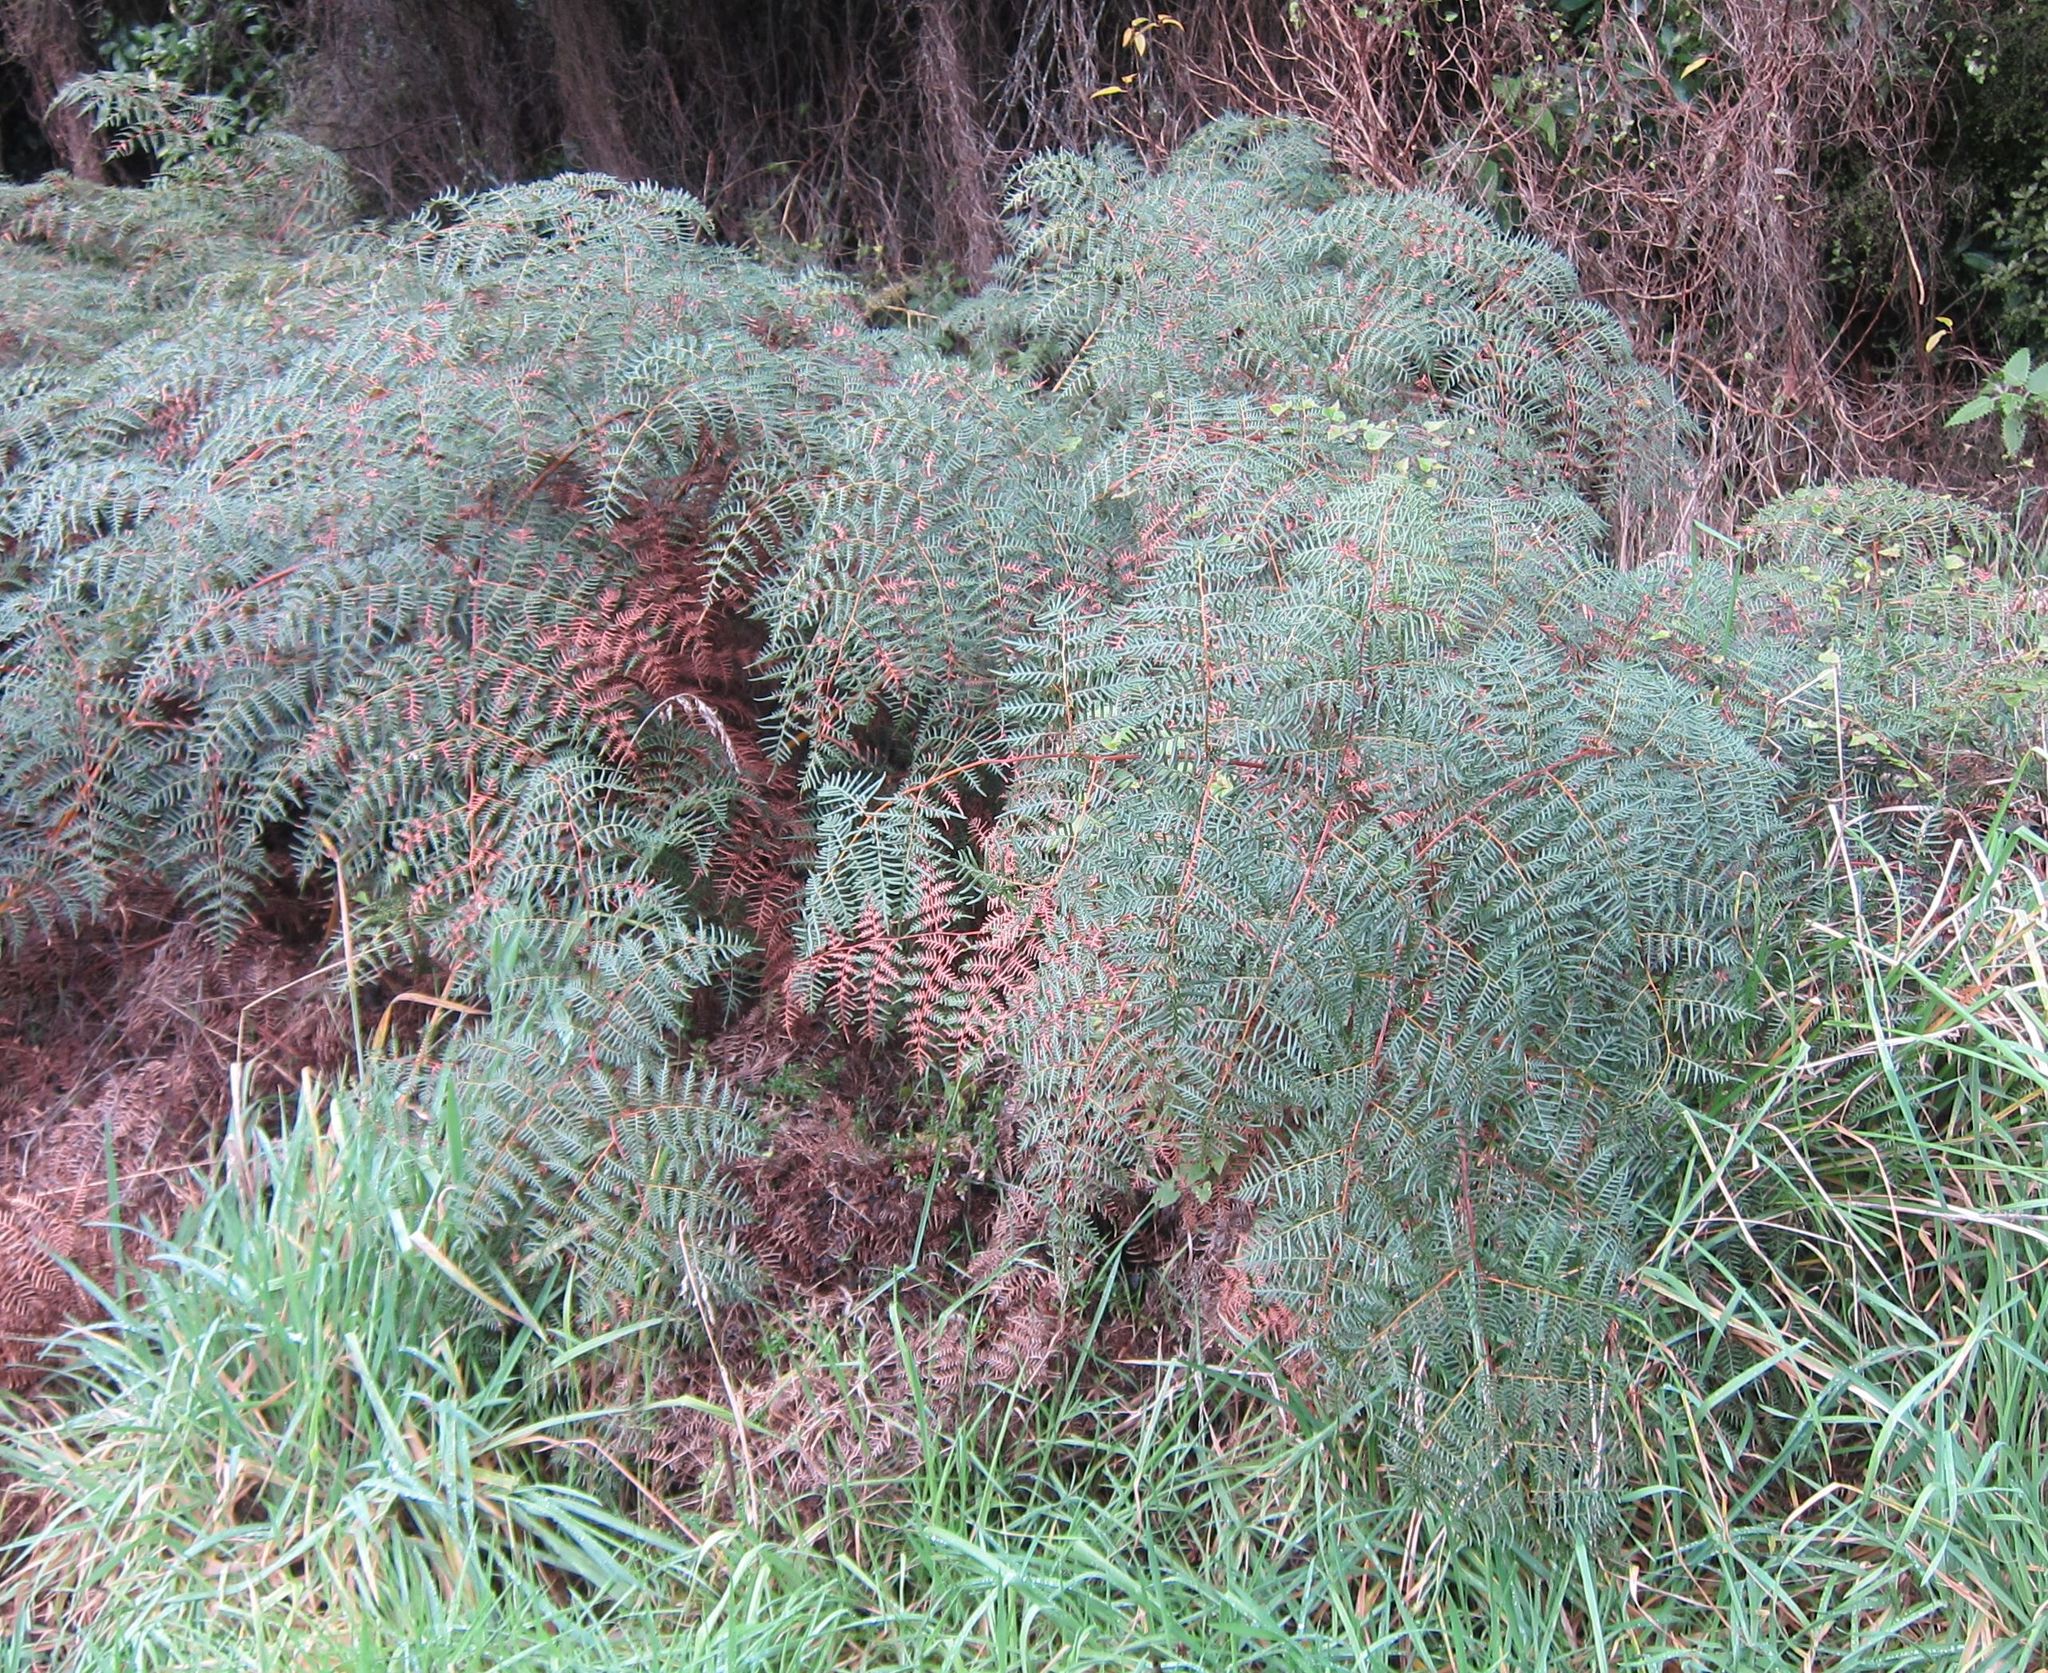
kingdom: Plantae
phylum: Tracheophyta
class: Polypodiopsida
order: Polypodiales
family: Dennstaedtiaceae
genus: Pteridium
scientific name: Pteridium esculentum
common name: Bracken fern
